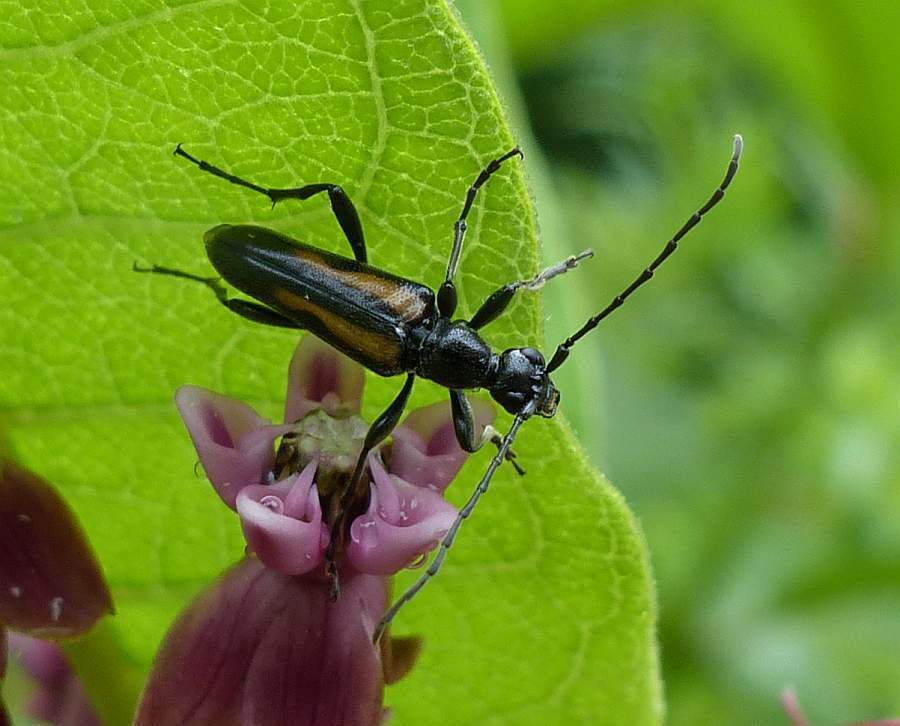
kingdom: Animalia
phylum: Arthropoda
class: Insecta
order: Coleoptera
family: Cerambycidae
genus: Strangalepta
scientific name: Strangalepta abbreviata
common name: Strangalepta flower longhorn beetle
